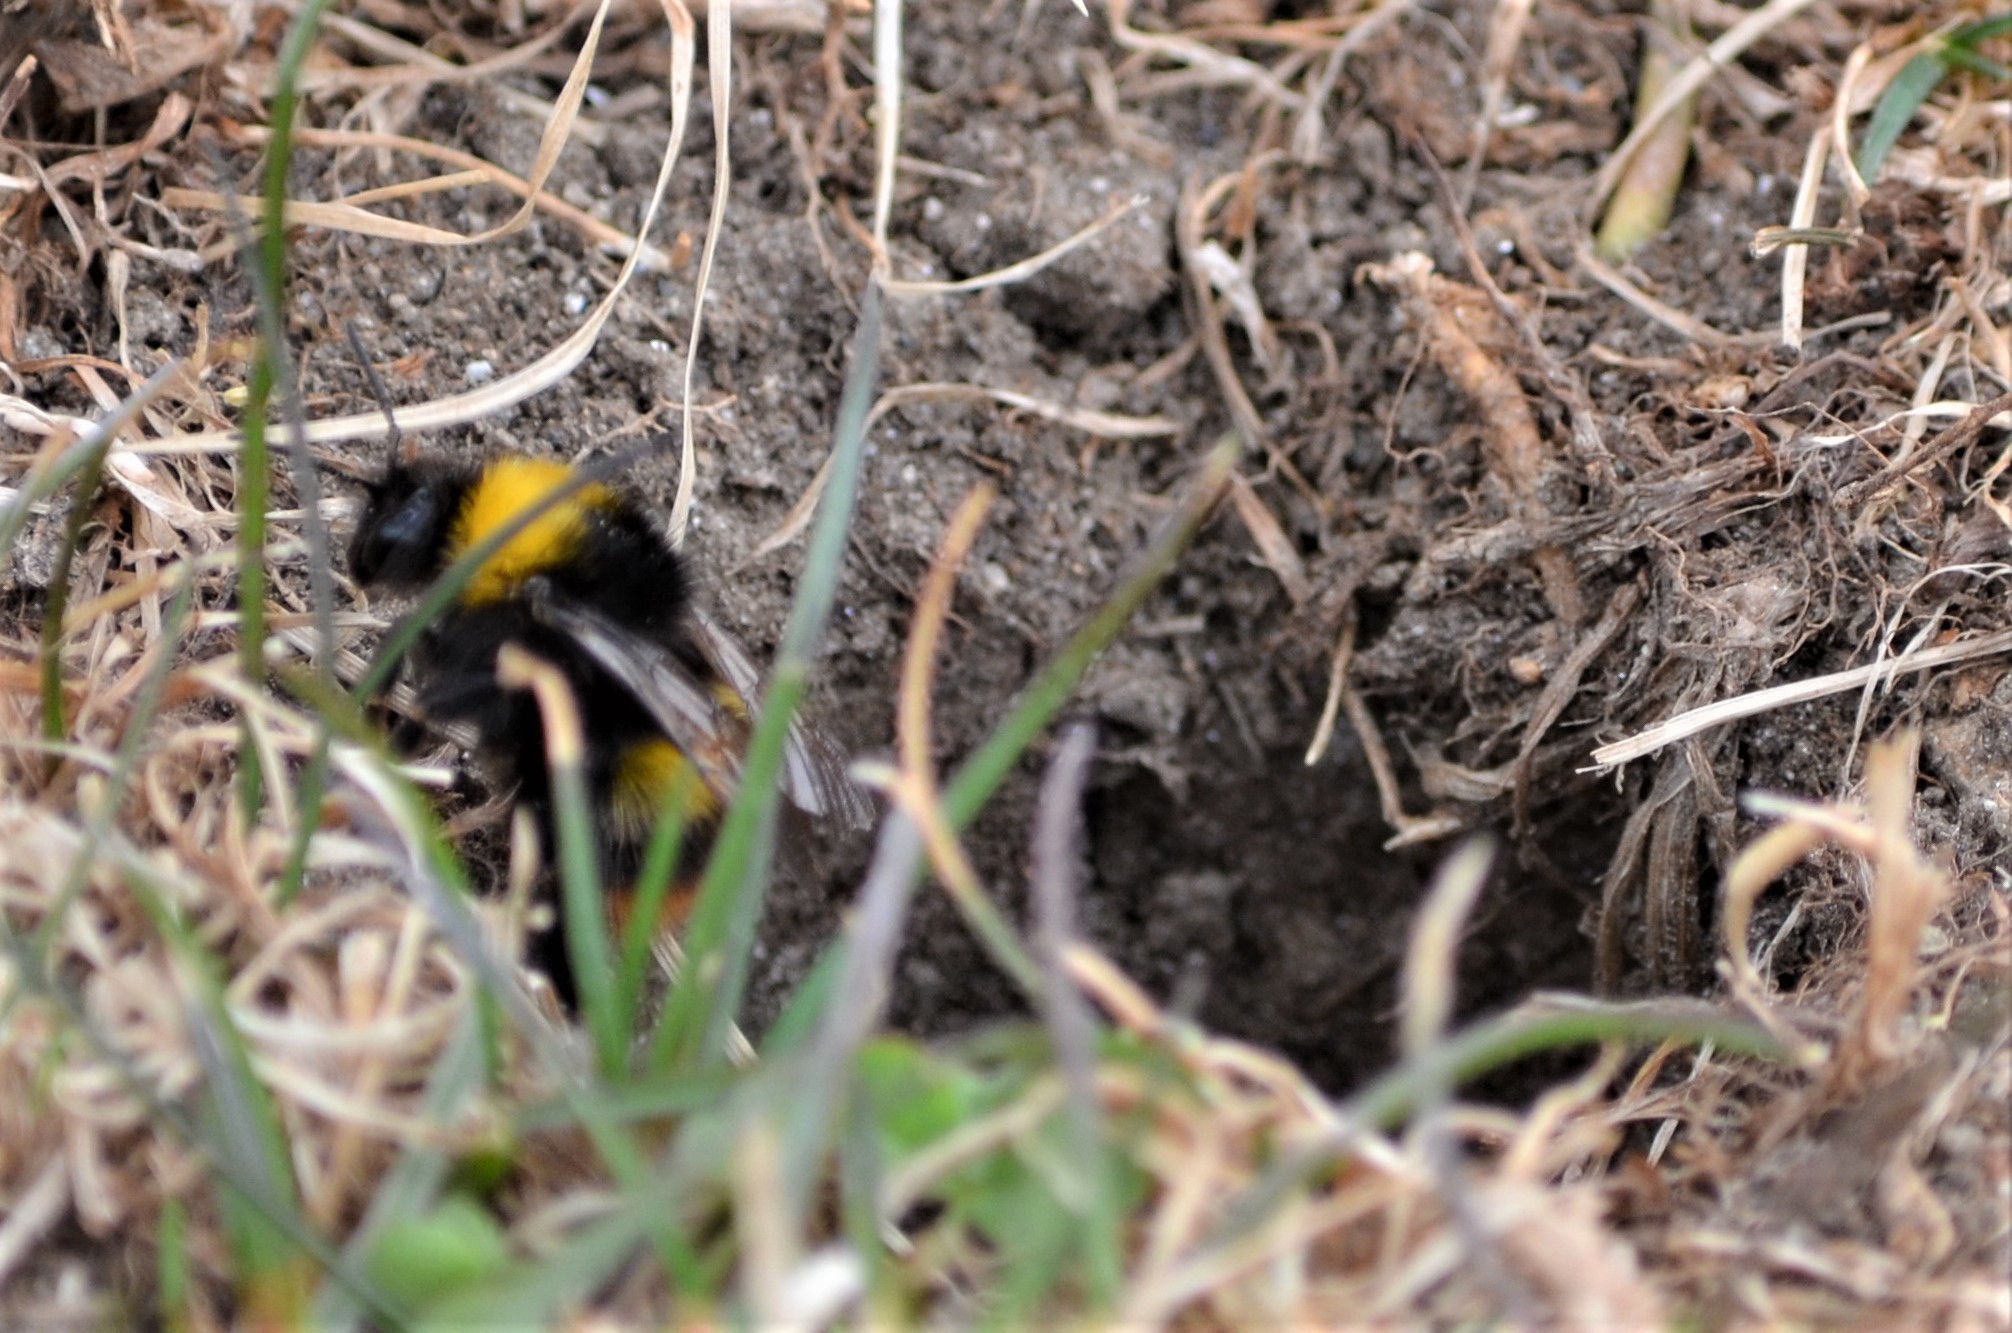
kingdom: Animalia
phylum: Arthropoda
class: Insecta
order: Hymenoptera
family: Apidae
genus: Bombus
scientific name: Bombus pratorum
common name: Early humble-bee
